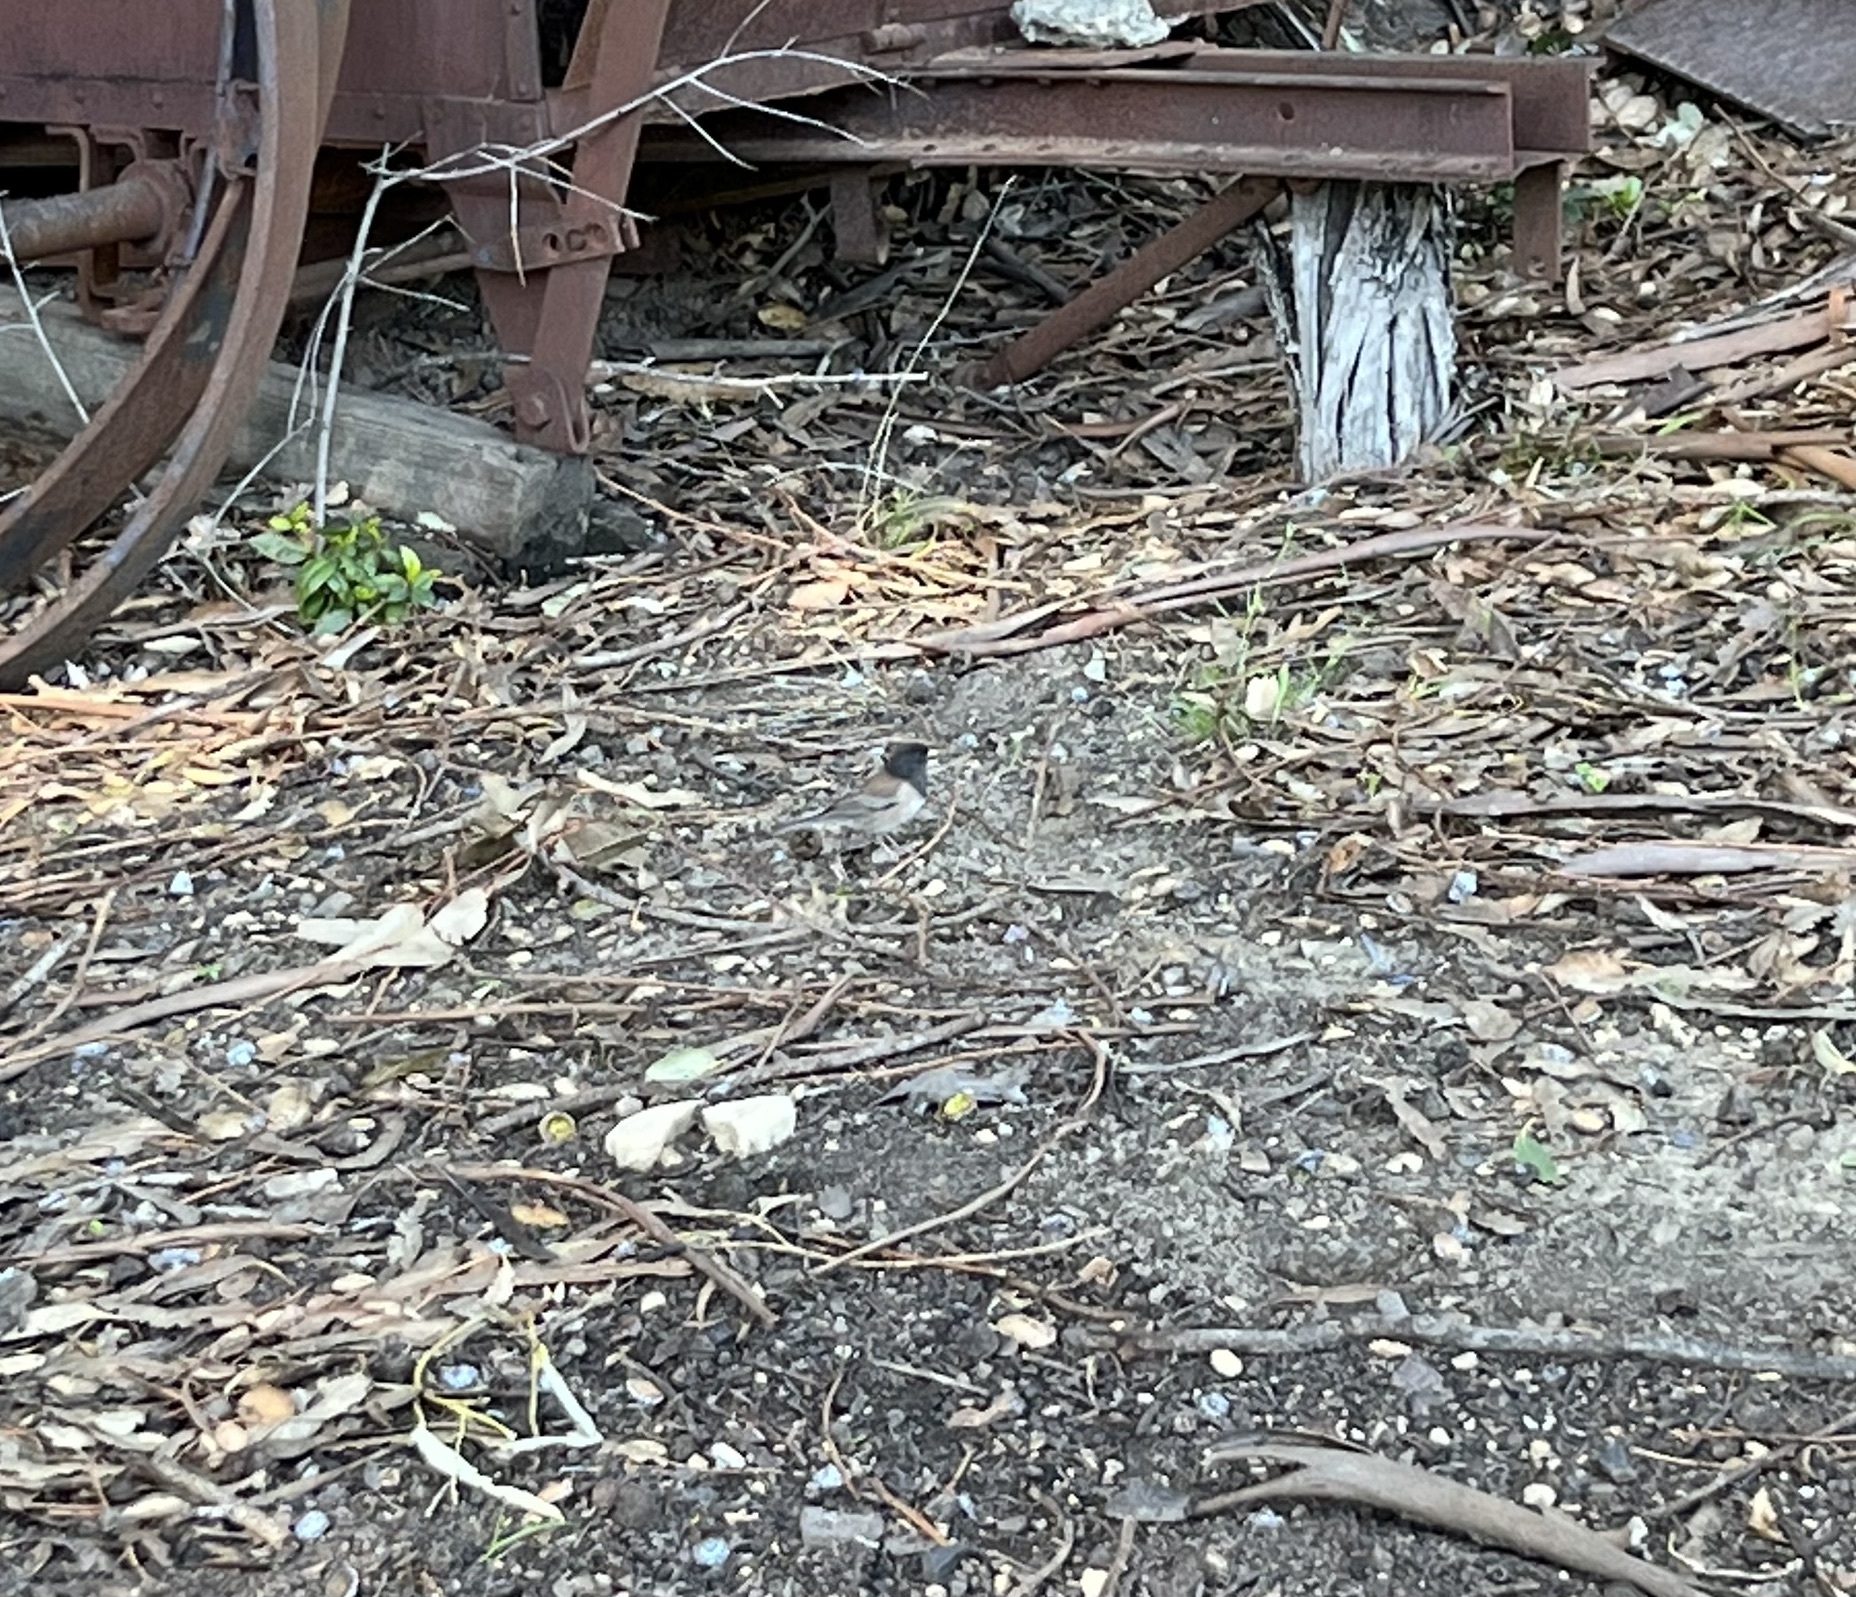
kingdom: Animalia
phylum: Chordata
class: Aves
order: Passeriformes
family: Passerellidae
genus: Junco
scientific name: Junco hyemalis
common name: Dark-eyed junco
